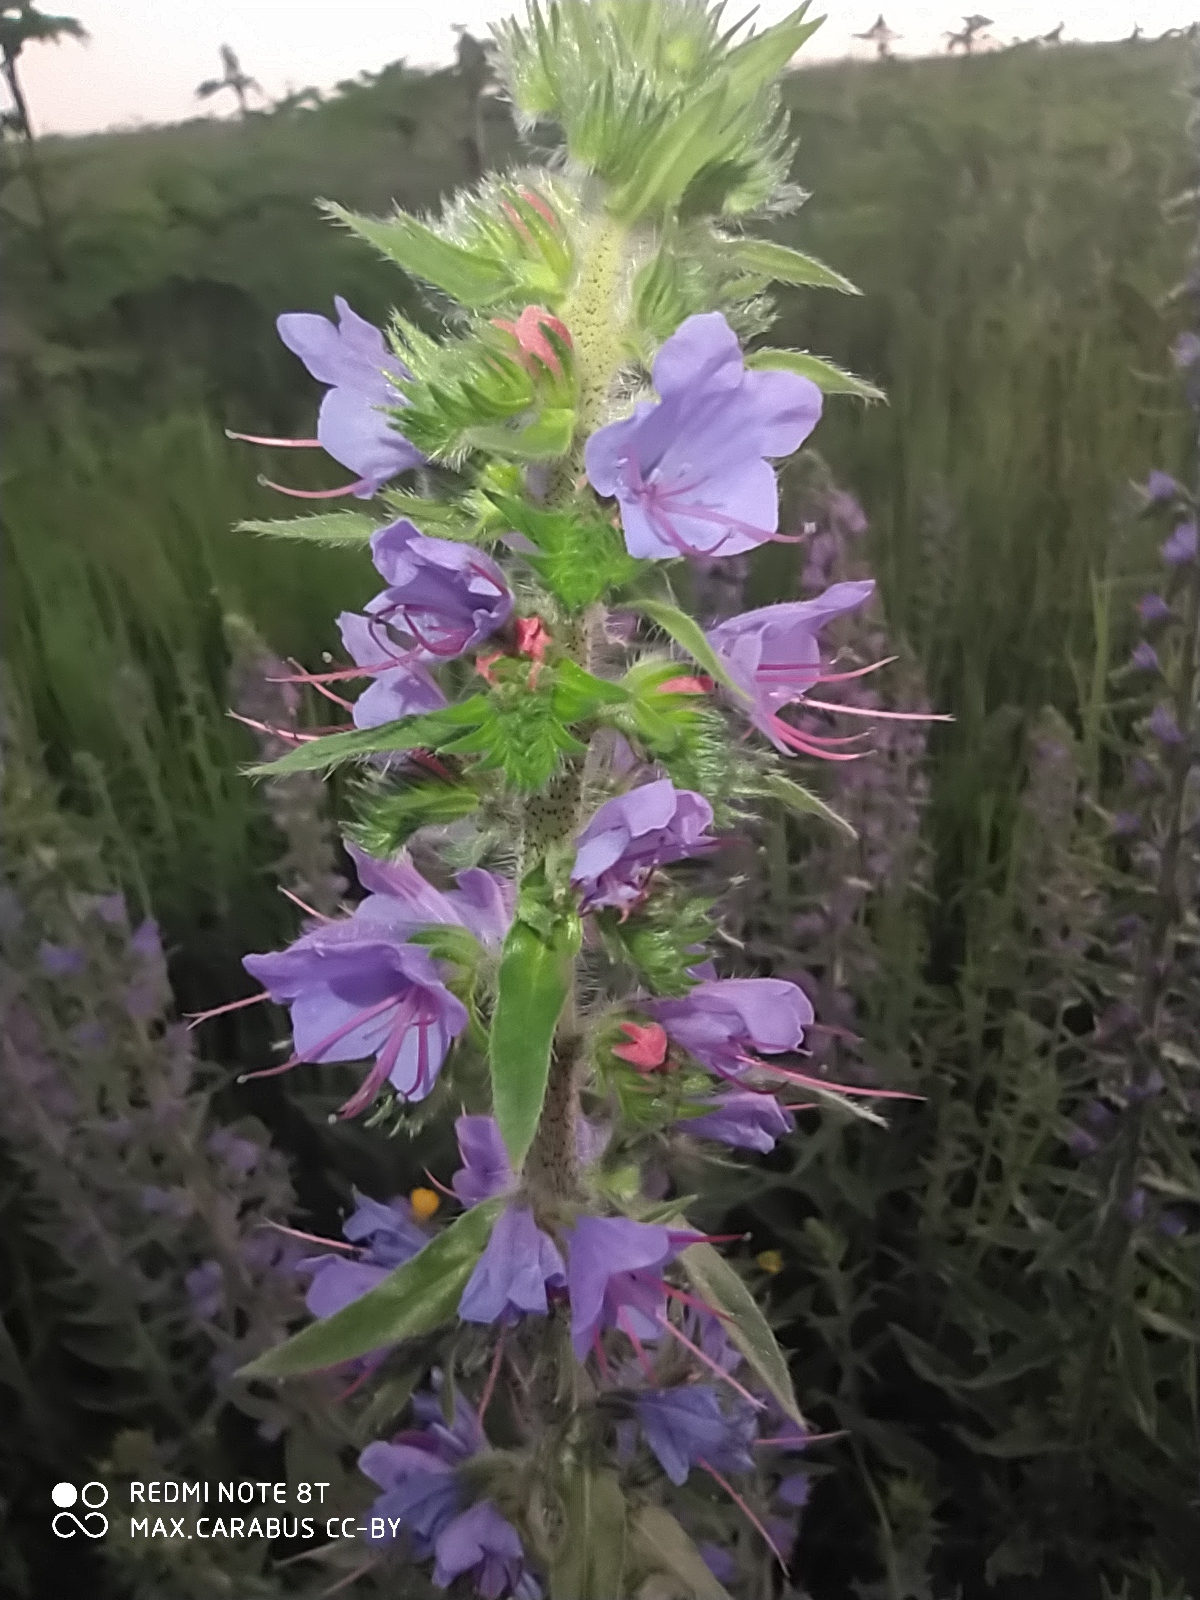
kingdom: Plantae
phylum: Tracheophyta
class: Magnoliopsida
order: Boraginales
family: Boraginaceae
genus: Echium
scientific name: Echium vulgare
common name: Common viper's bugloss
